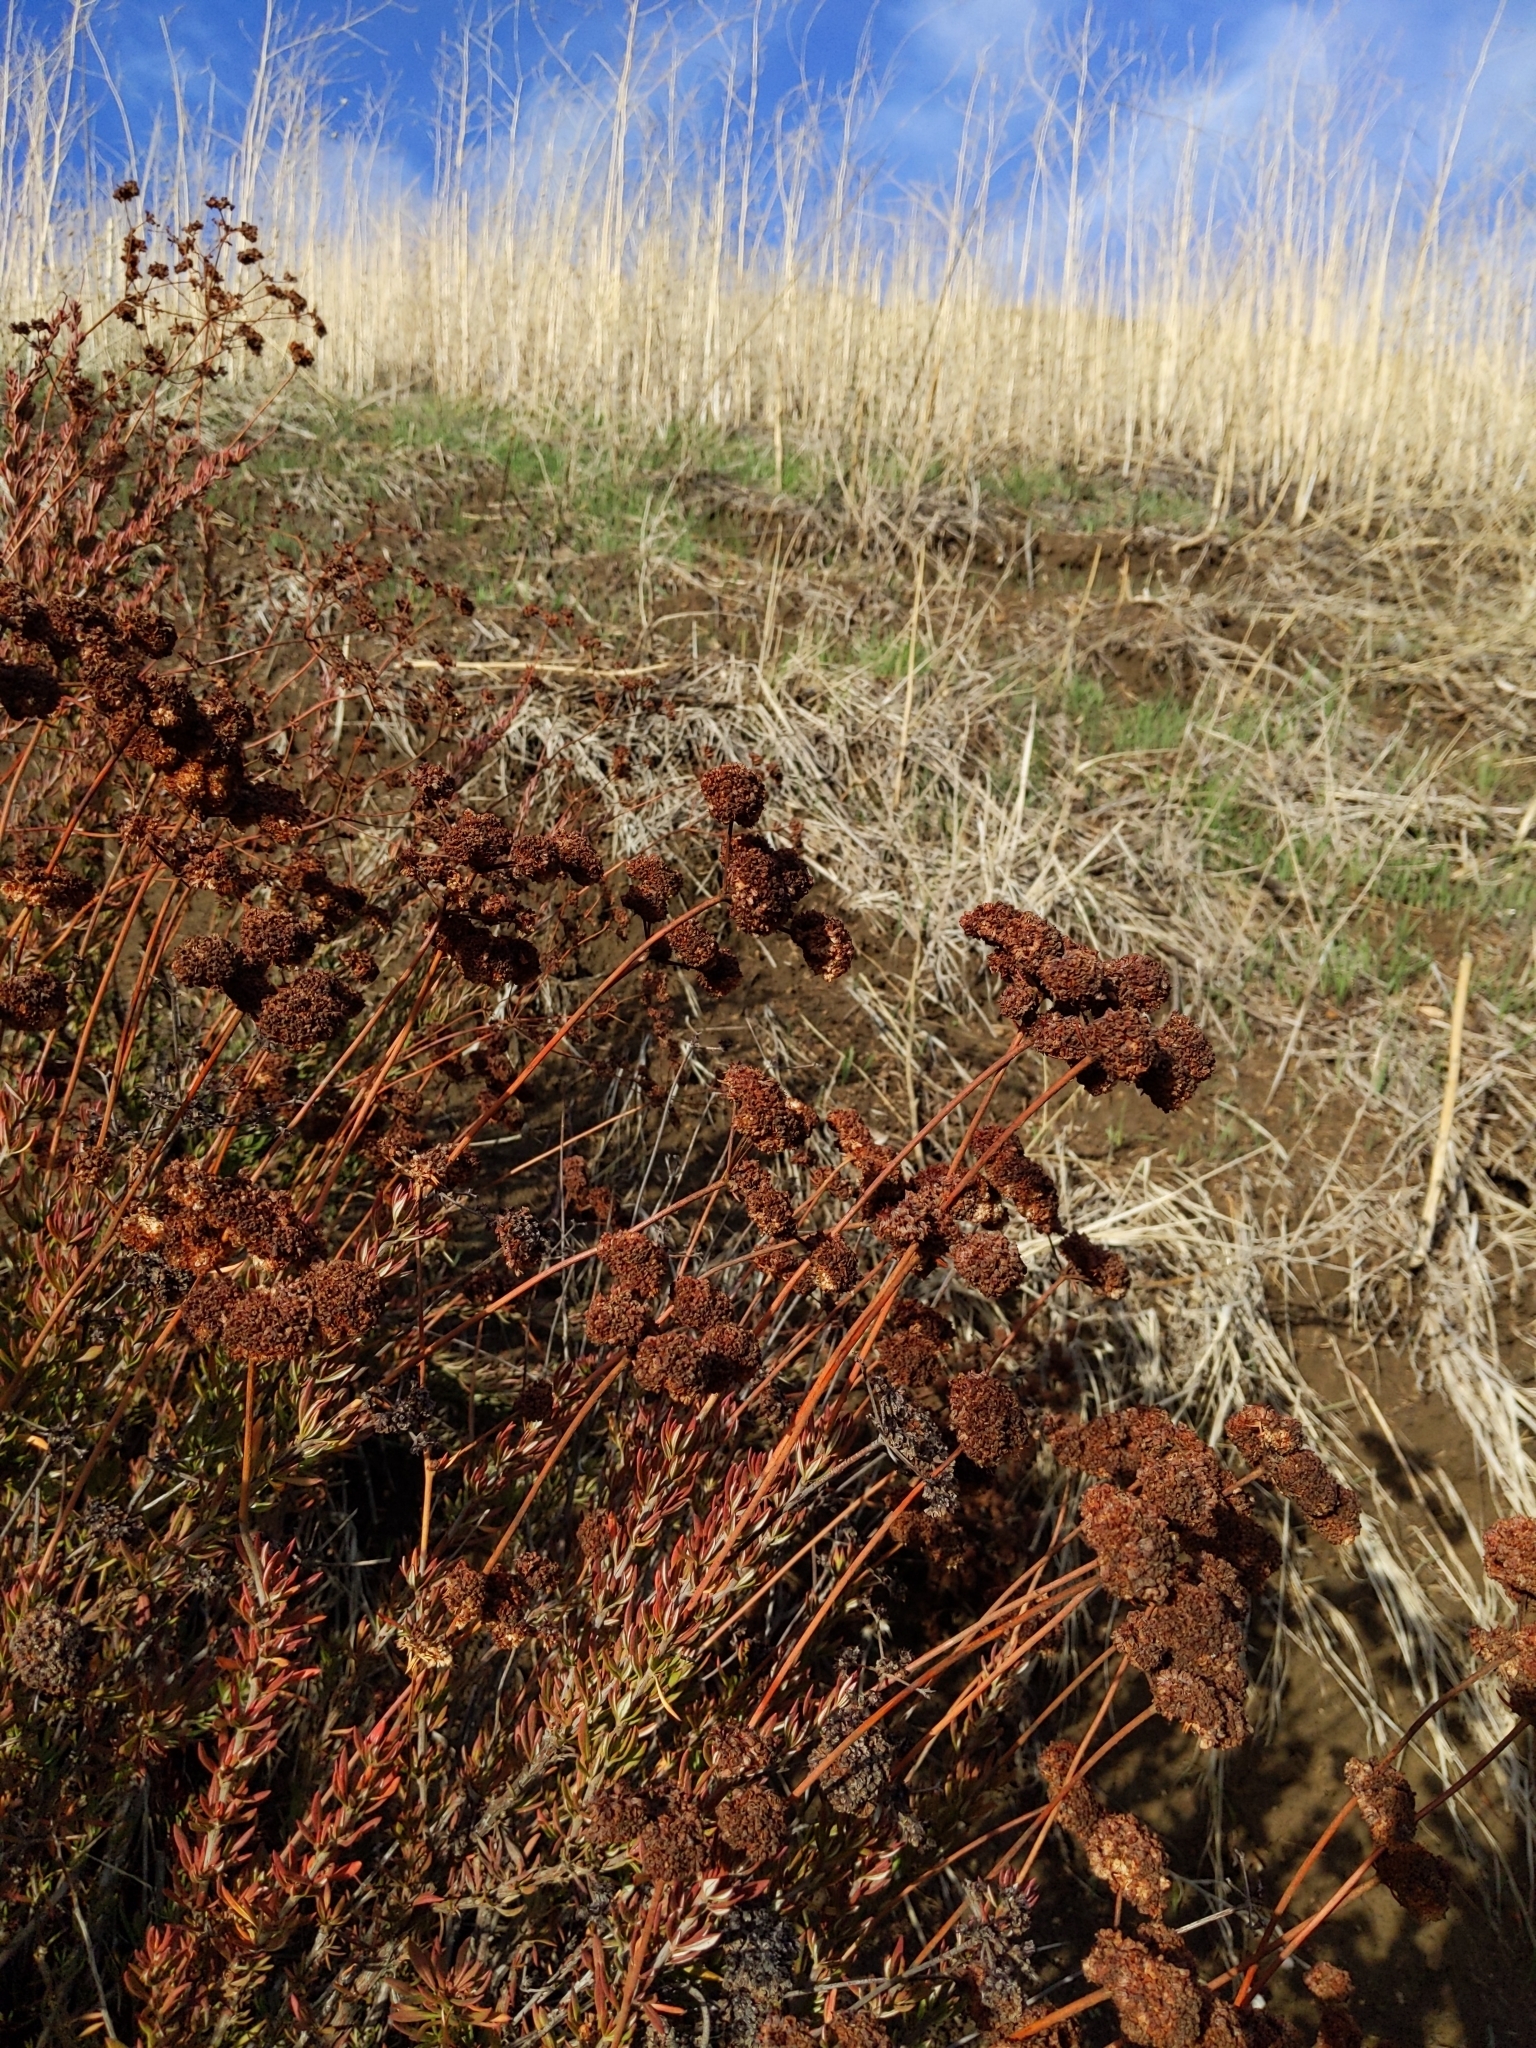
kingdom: Plantae
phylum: Tracheophyta
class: Magnoliopsida
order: Caryophyllales
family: Polygonaceae
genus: Eriogonum
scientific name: Eriogonum fasciculatum
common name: California wild buckwheat
